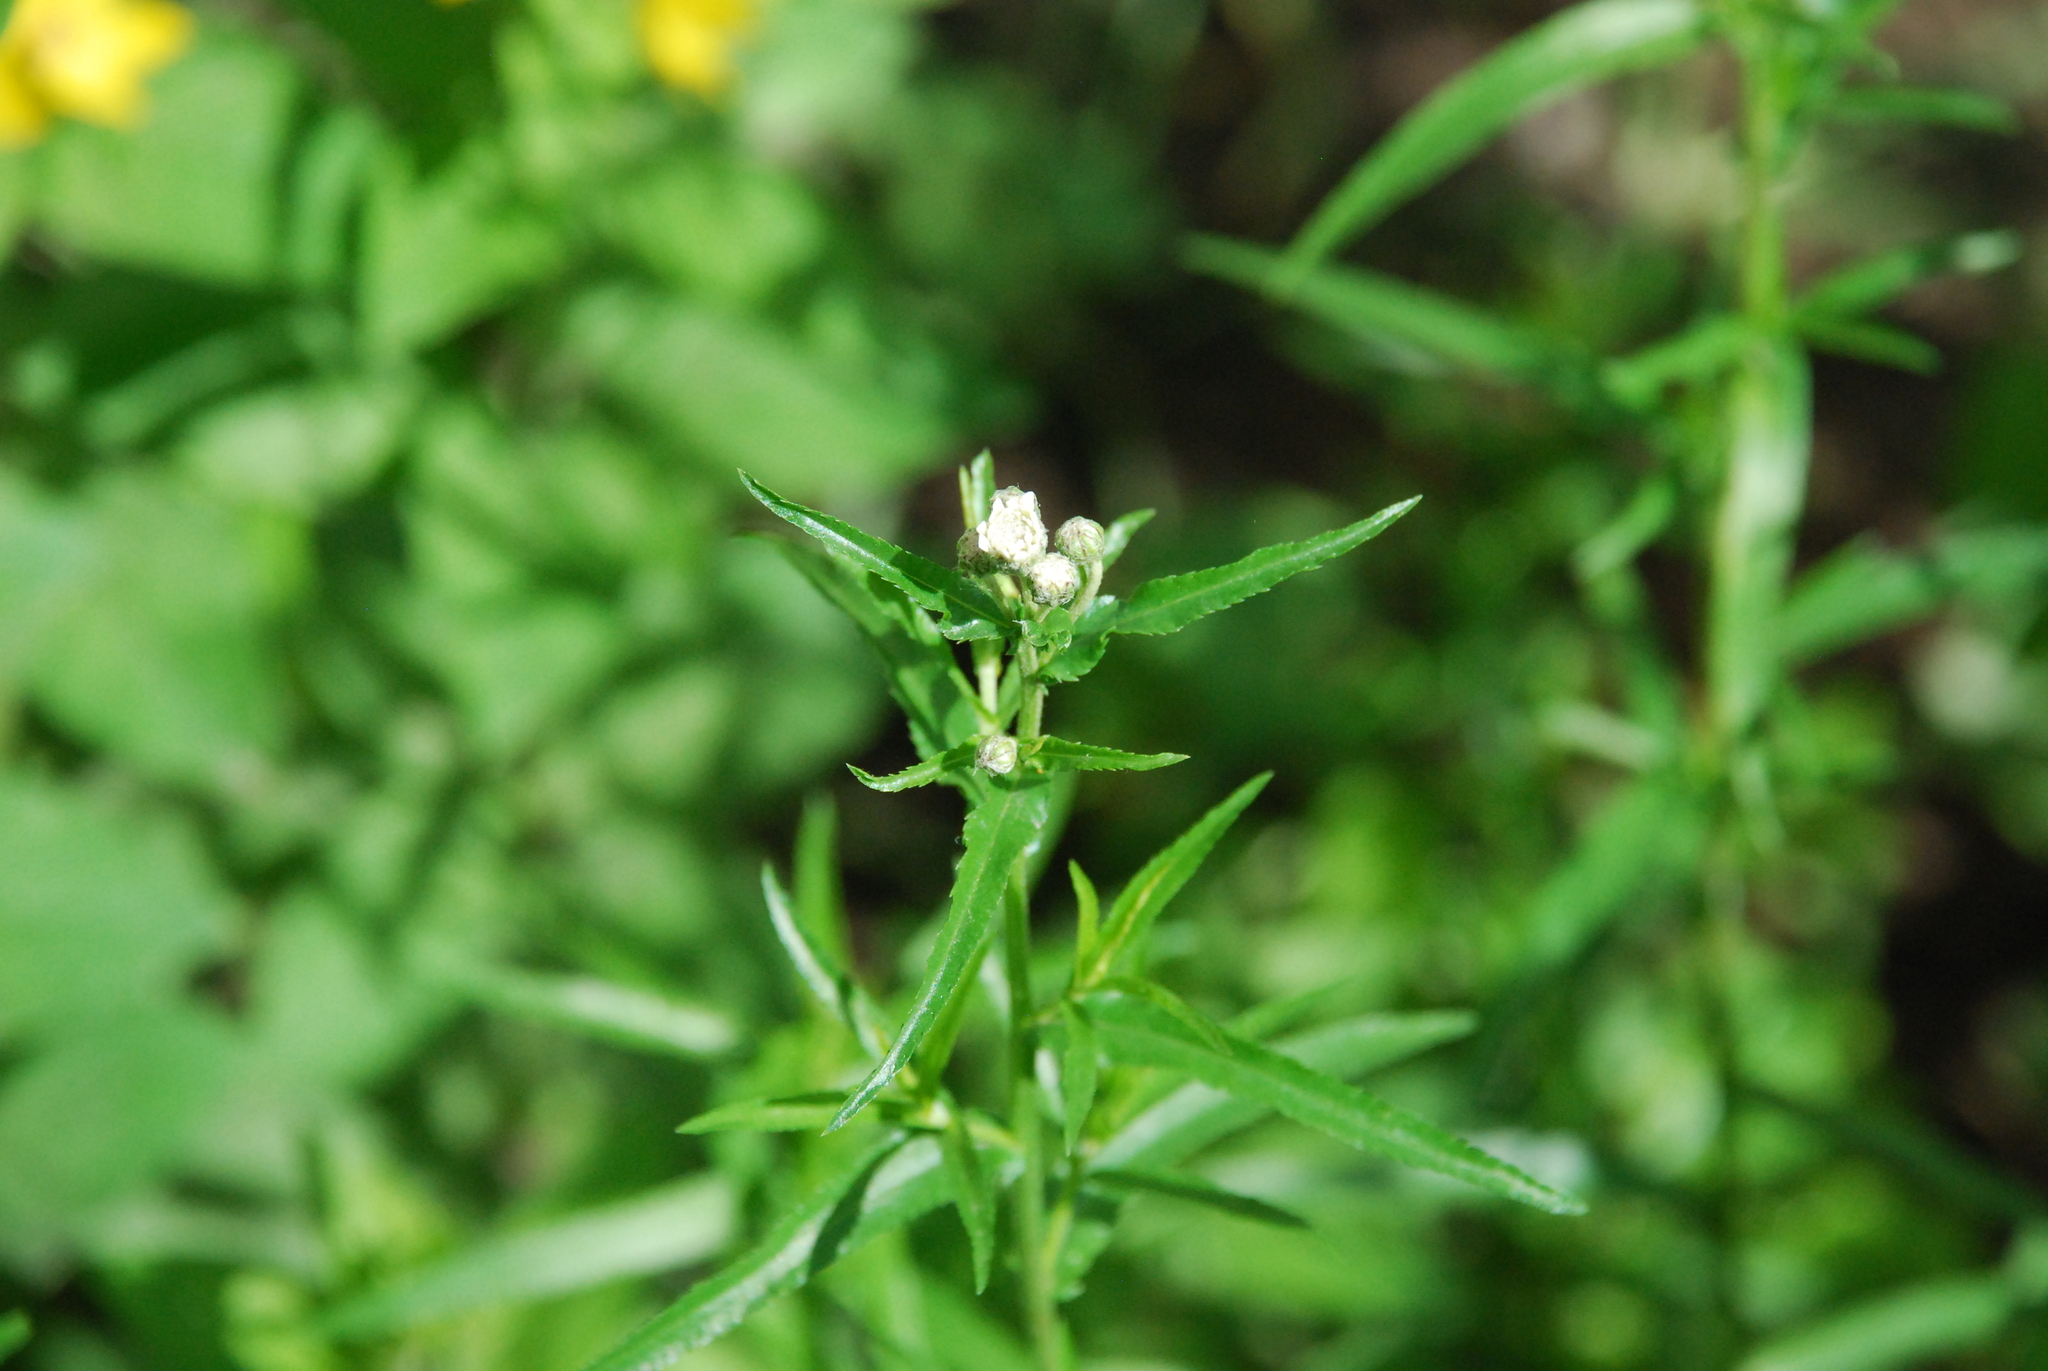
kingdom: Plantae
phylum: Tracheophyta
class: Magnoliopsida
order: Asterales
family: Asteraceae
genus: Achillea
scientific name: Achillea salicifolia
